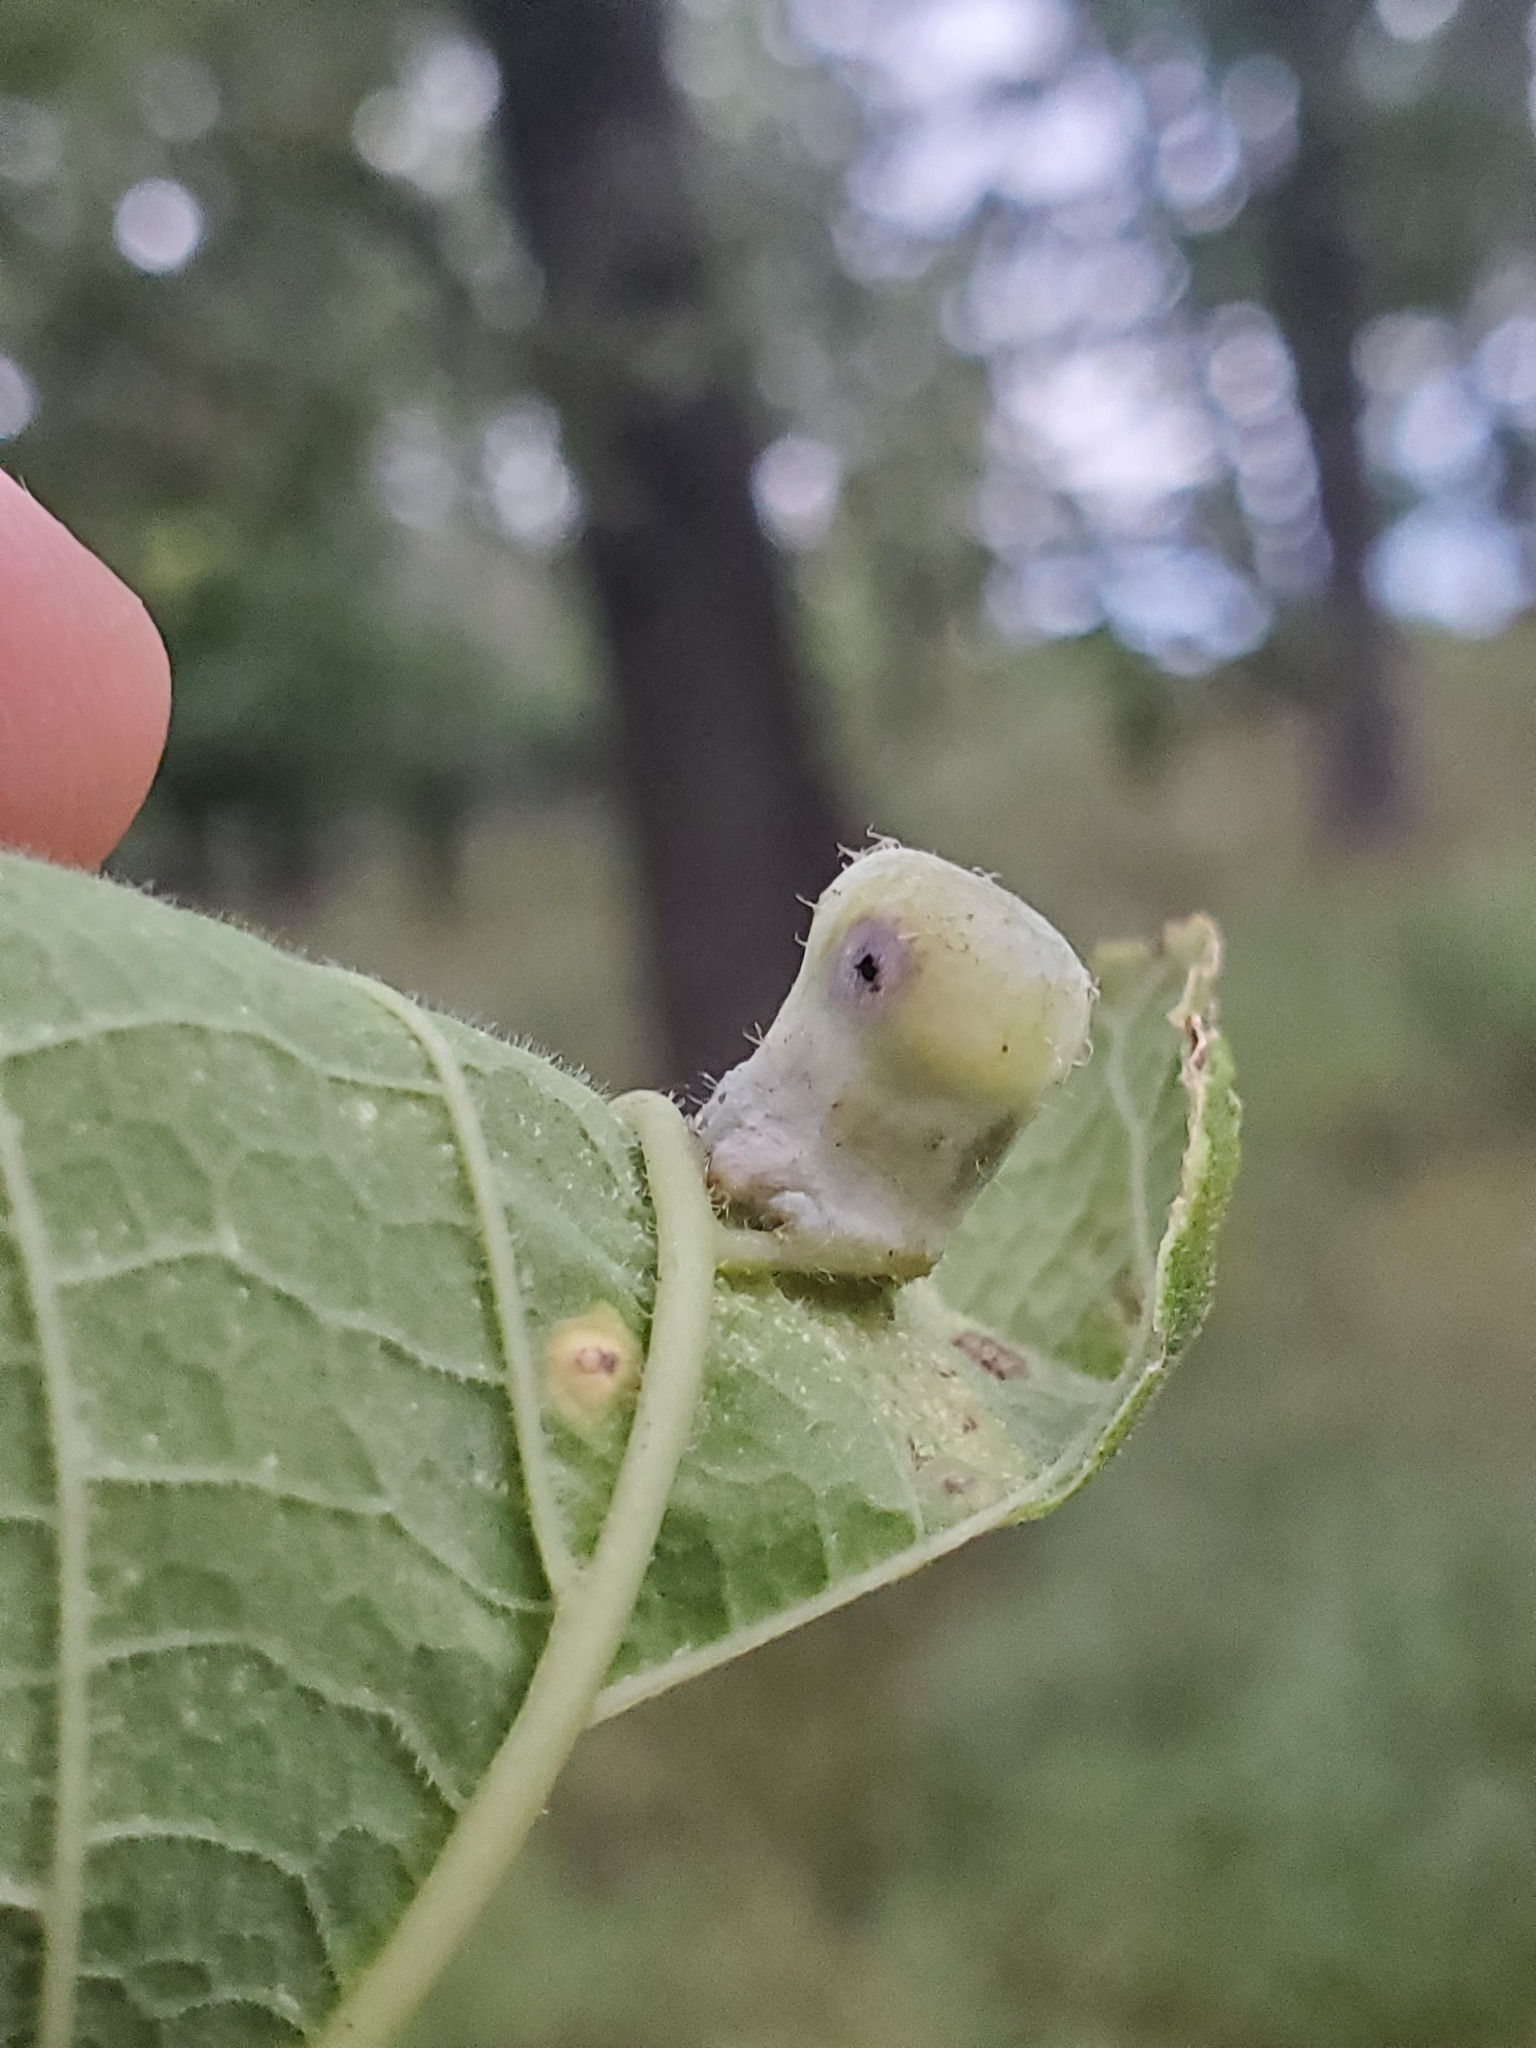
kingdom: Animalia
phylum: Arthropoda
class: Insecta
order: Hemiptera
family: Aphalaridae
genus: Pachypsylla
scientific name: Pachypsylla celtidismamma
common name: Hackberry nipplegall psyllid
